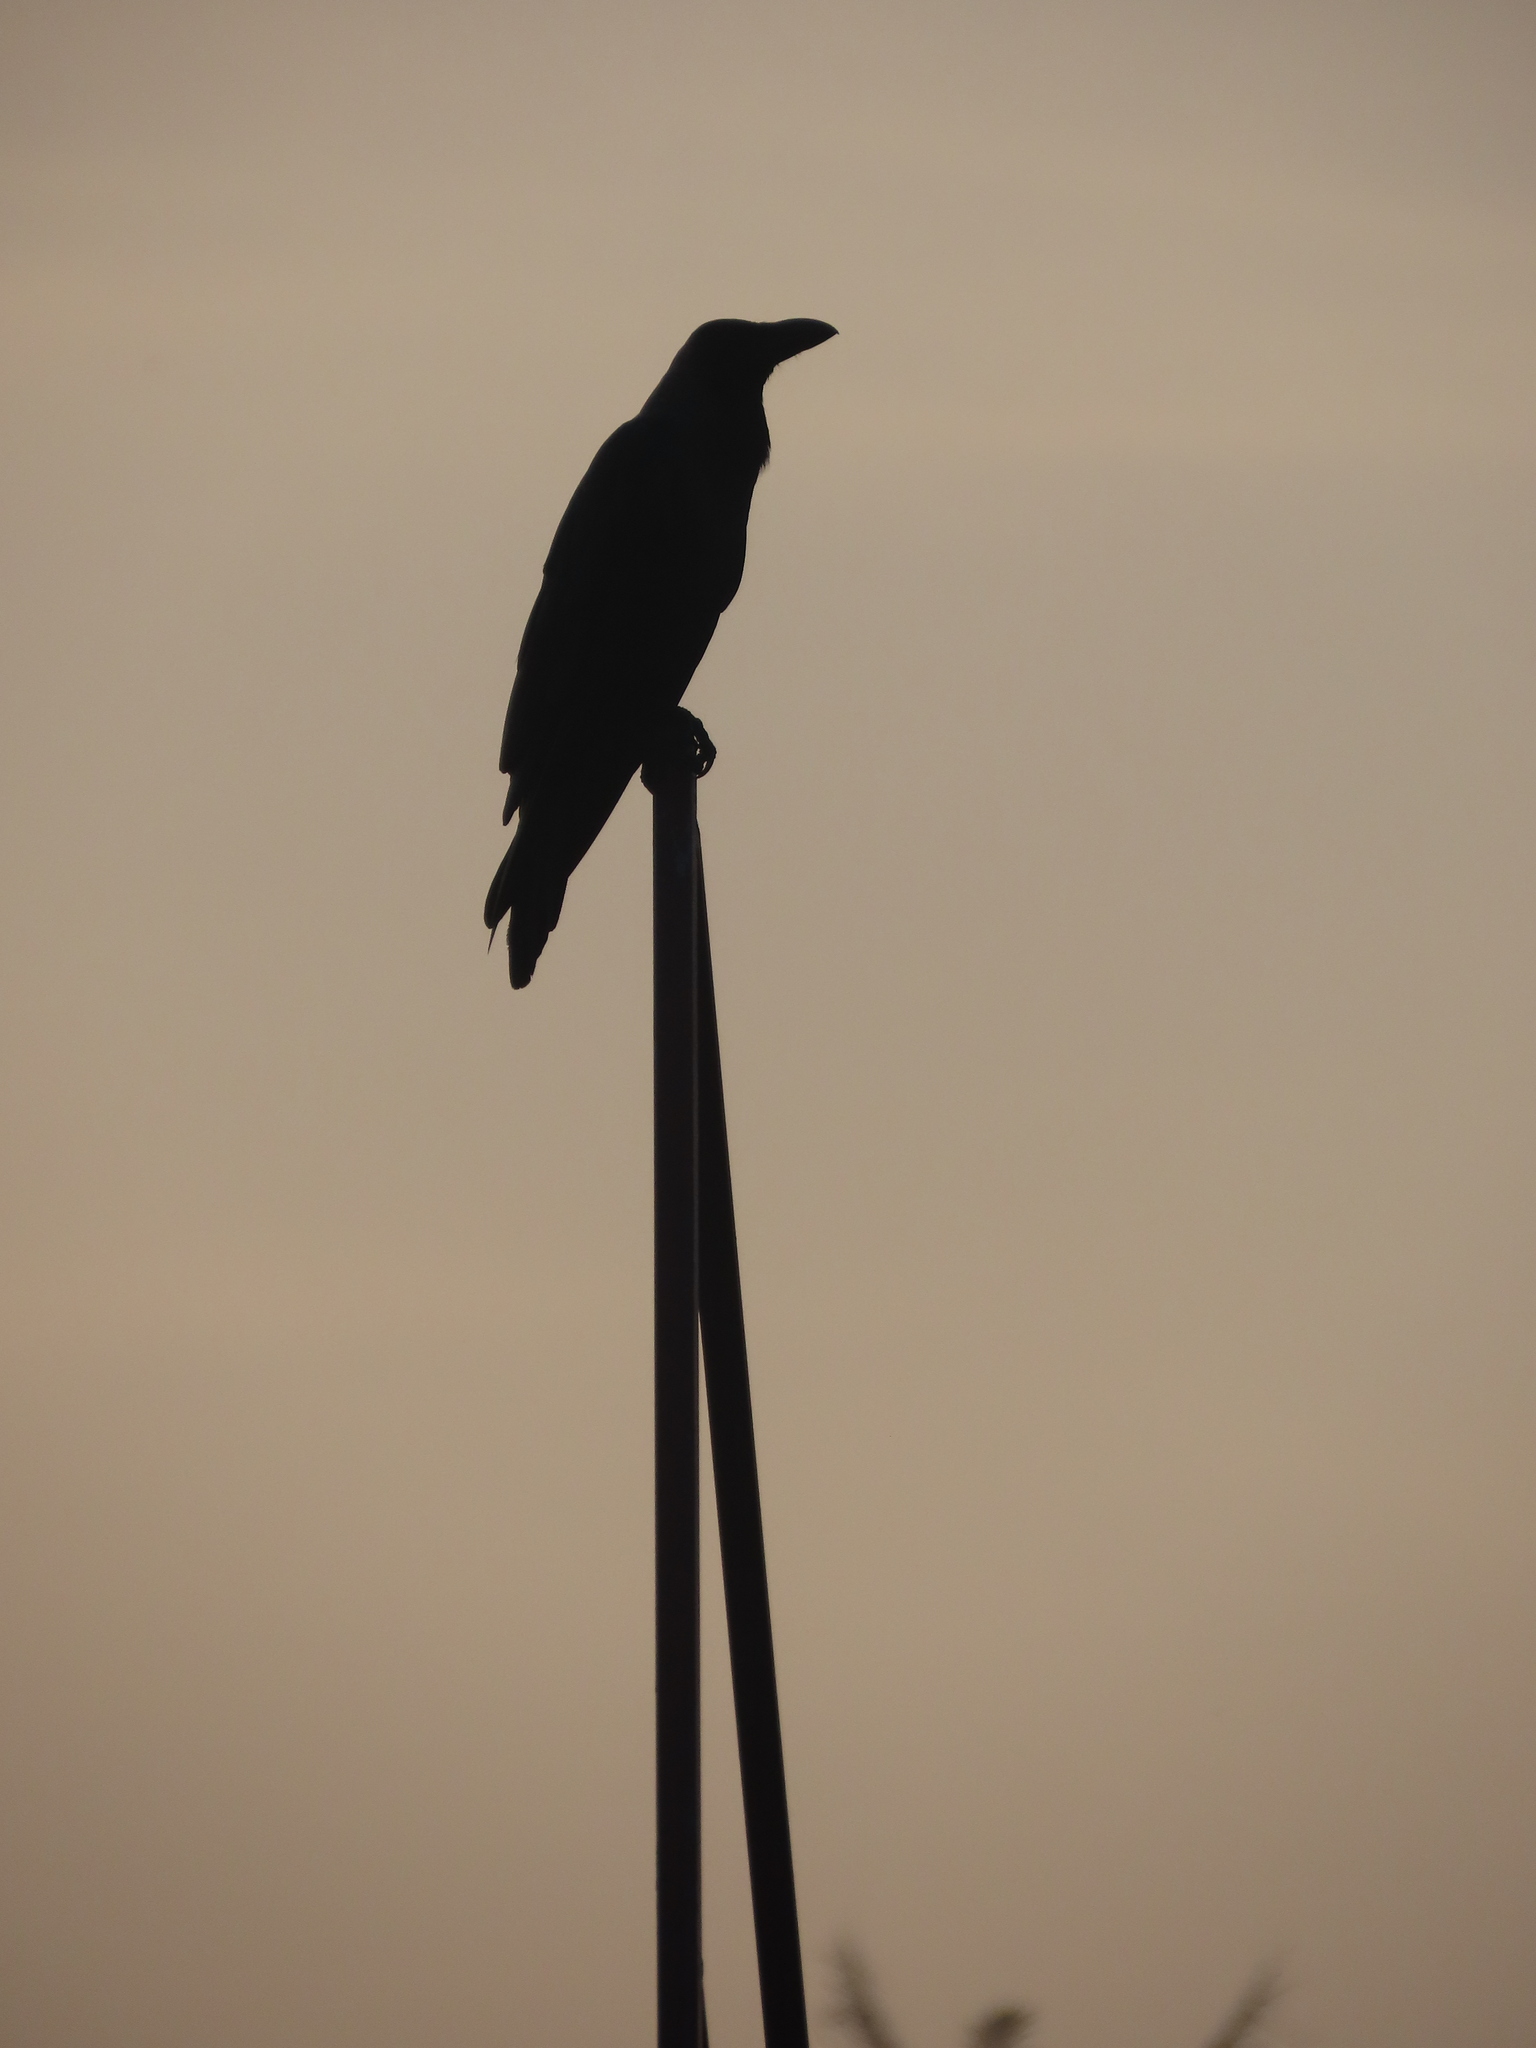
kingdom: Animalia
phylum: Chordata
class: Aves
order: Passeriformes
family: Corvidae
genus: Corvus
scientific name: Corvus macrorhynchos
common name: Large-billed crow
